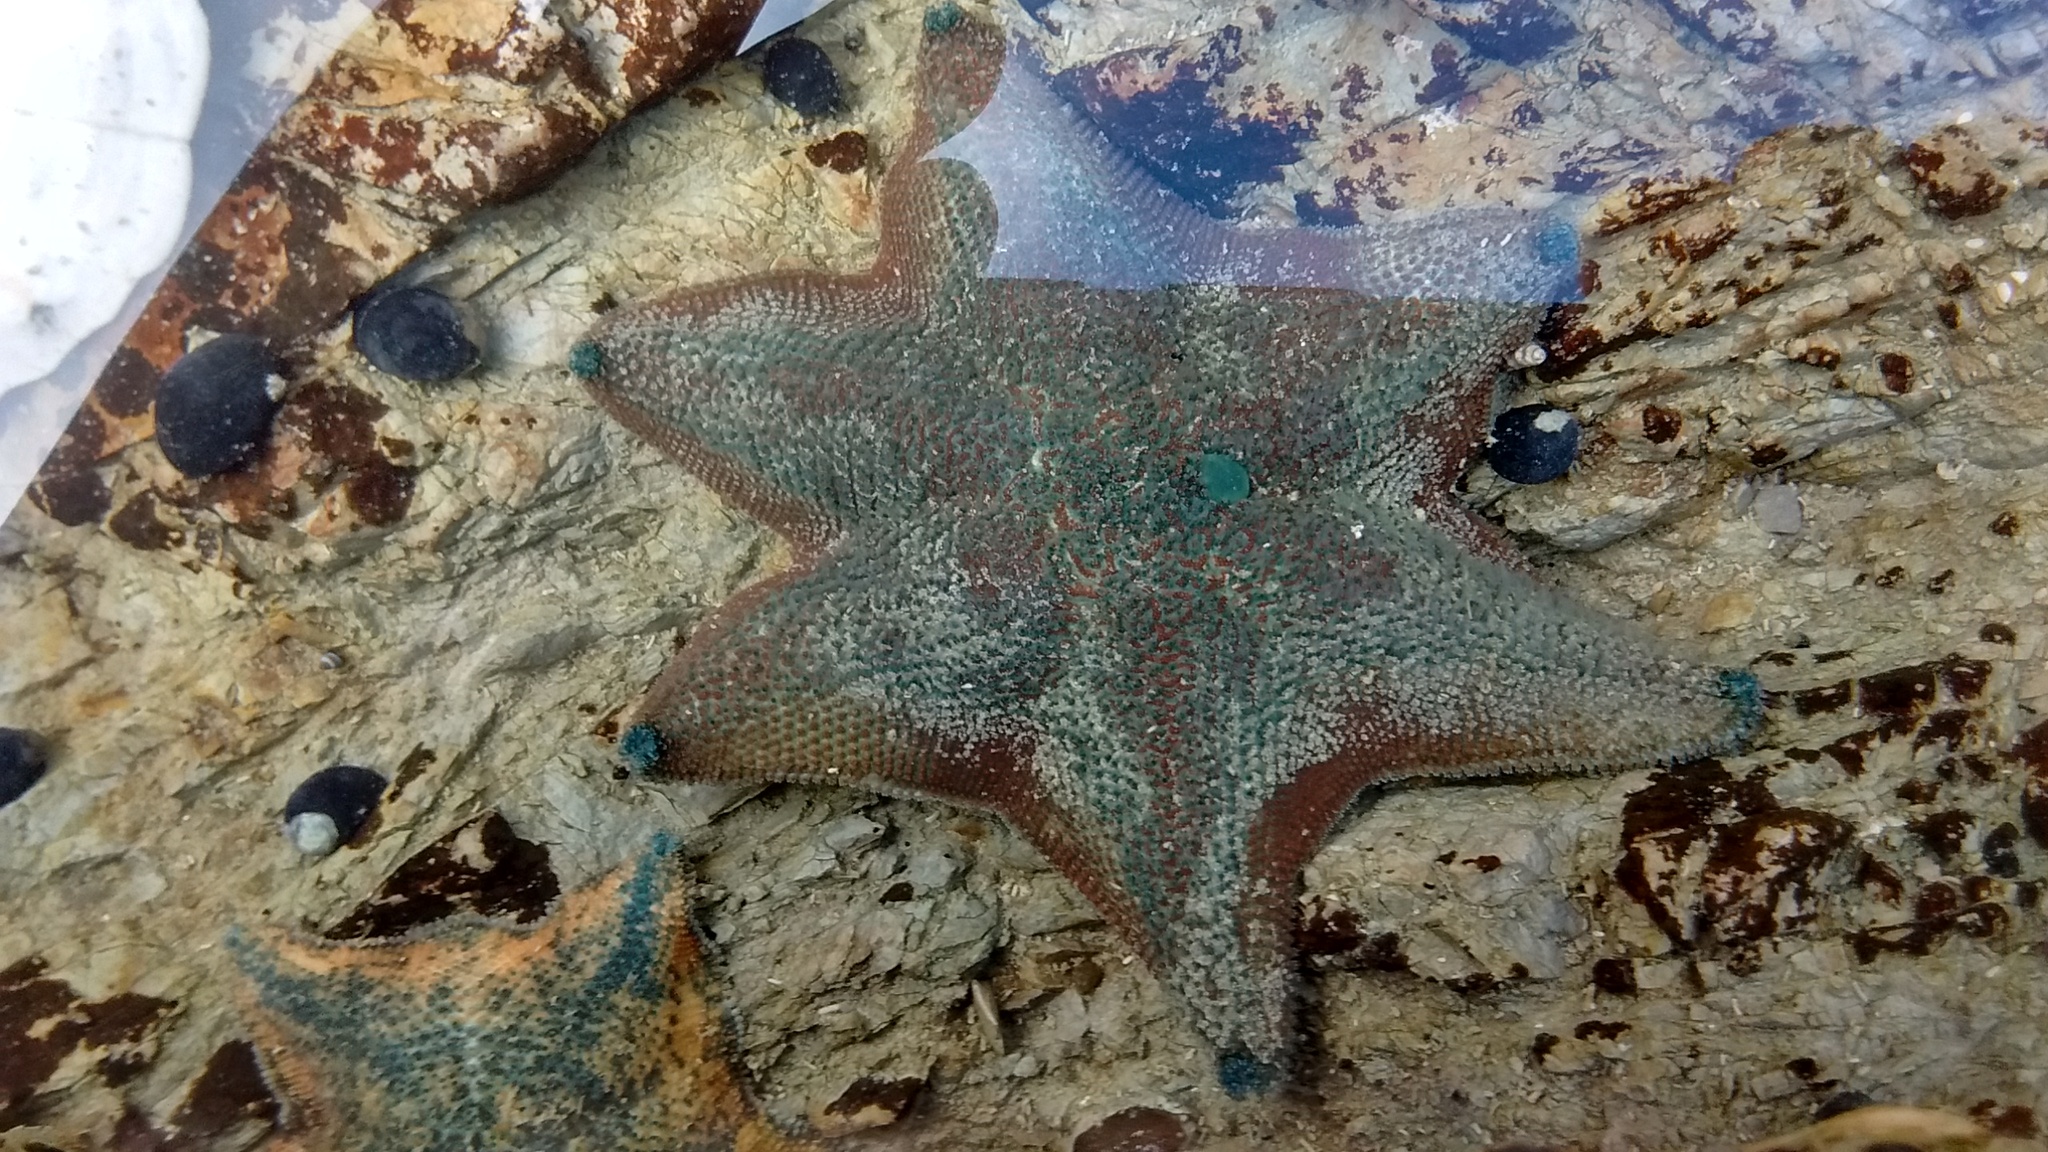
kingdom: Animalia
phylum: Echinodermata
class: Asteroidea
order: Valvatida
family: Asterinidae
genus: Patiriella
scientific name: Patiriella regularis
